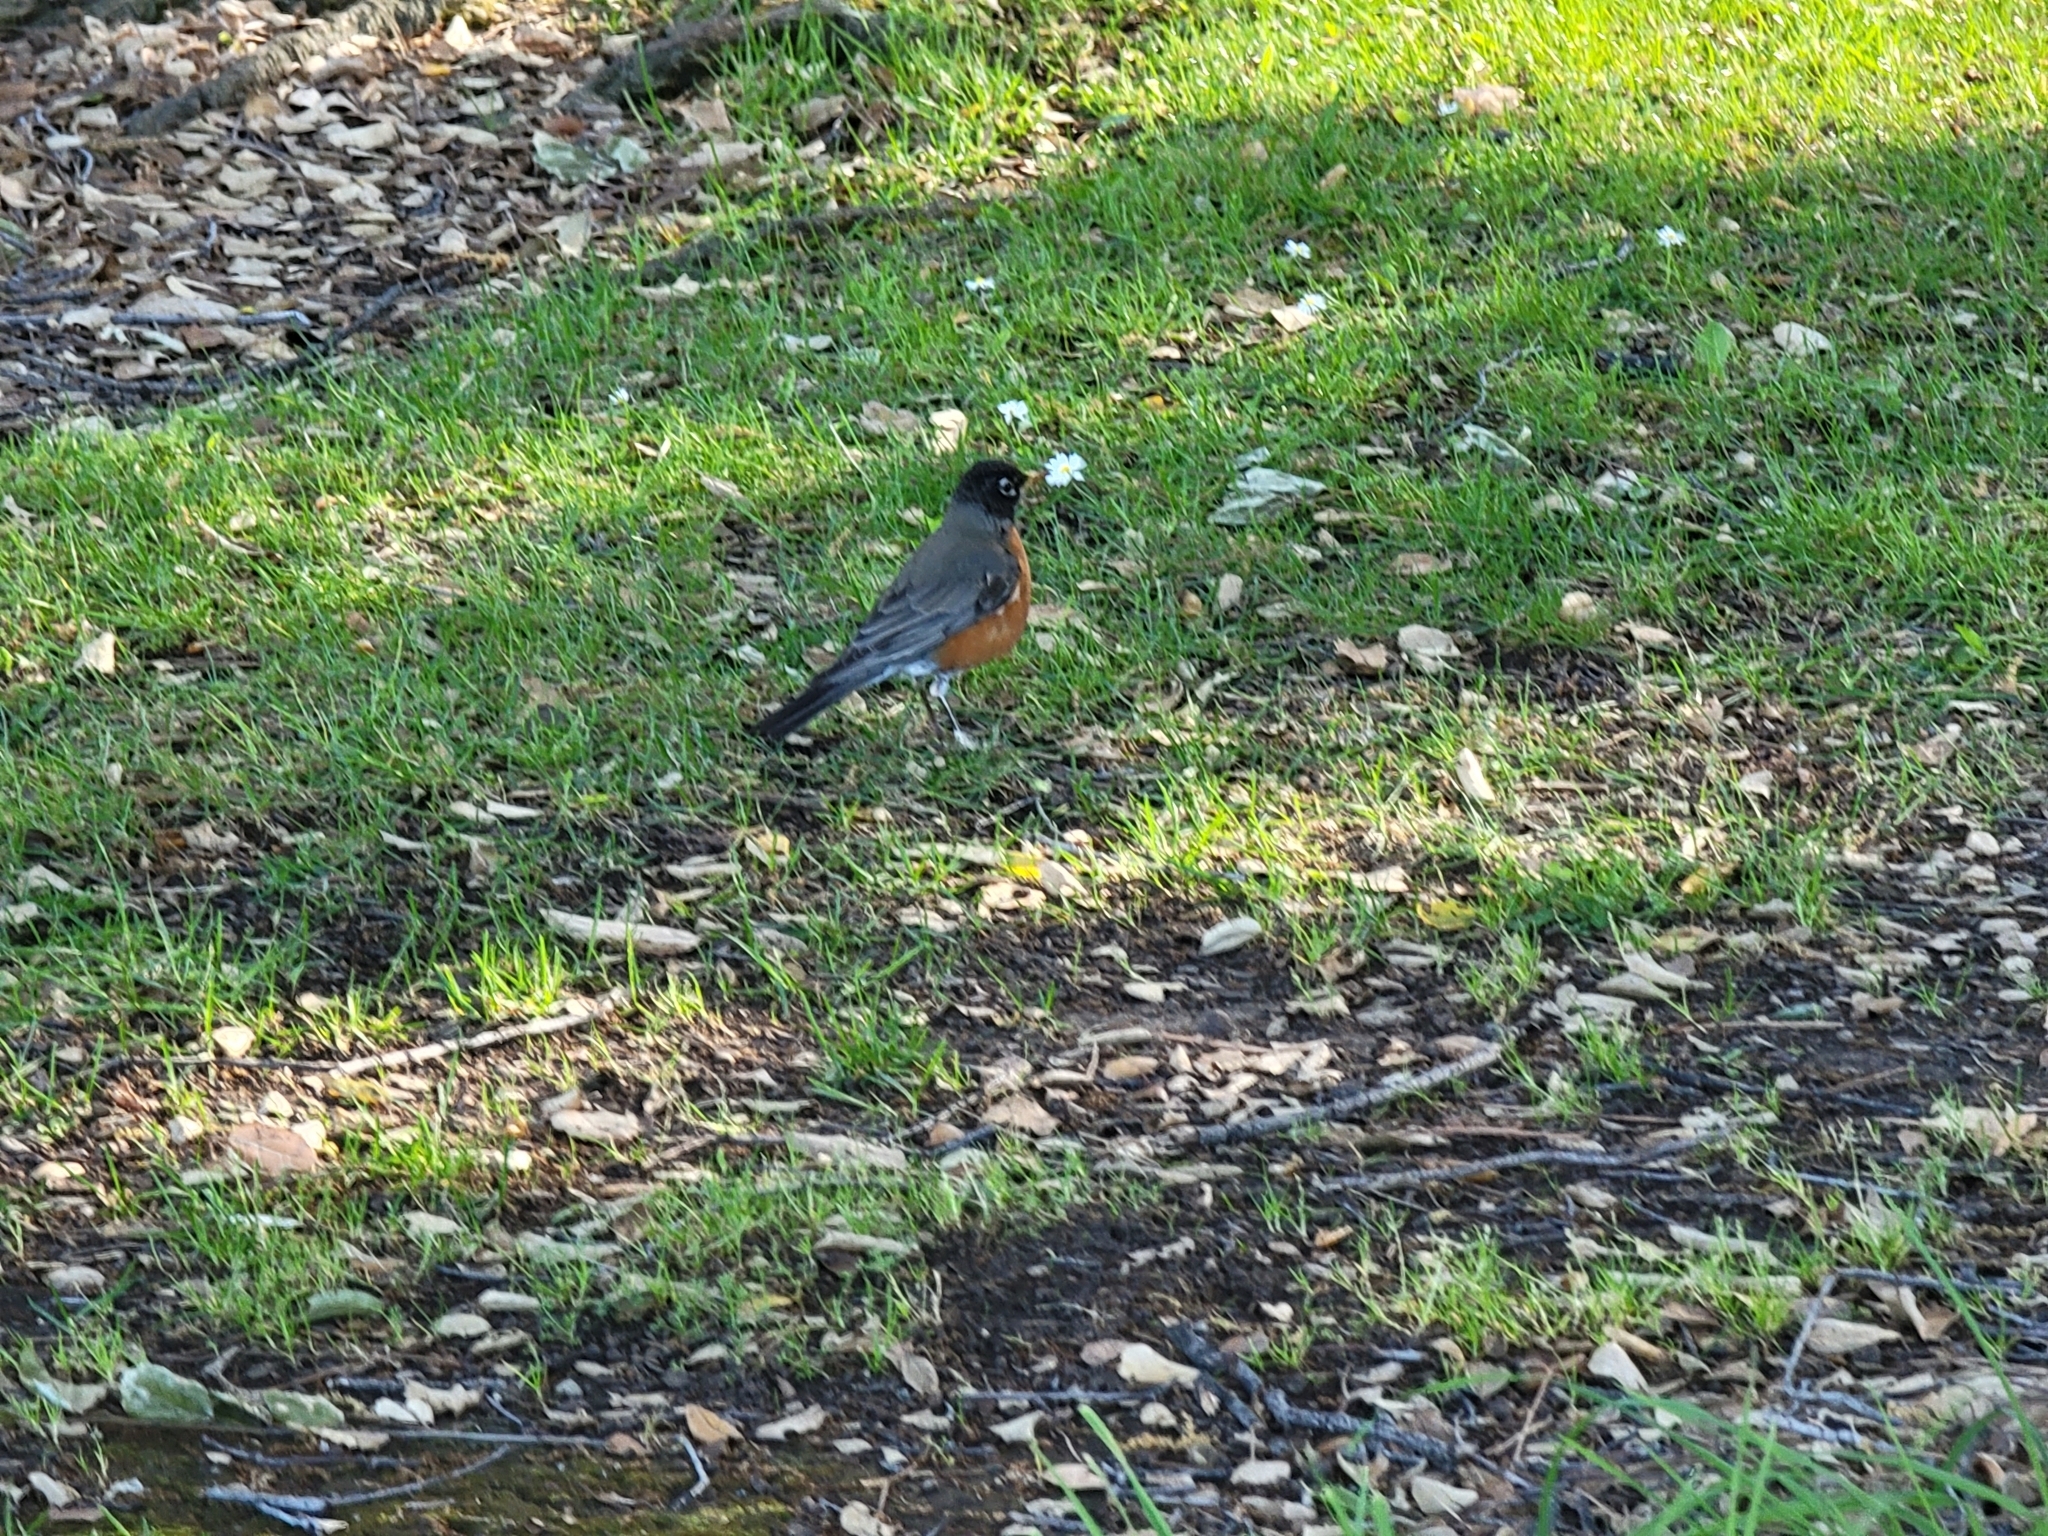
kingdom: Animalia
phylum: Chordata
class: Aves
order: Passeriformes
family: Turdidae
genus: Turdus
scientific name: Turdus migratorius
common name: American robin
